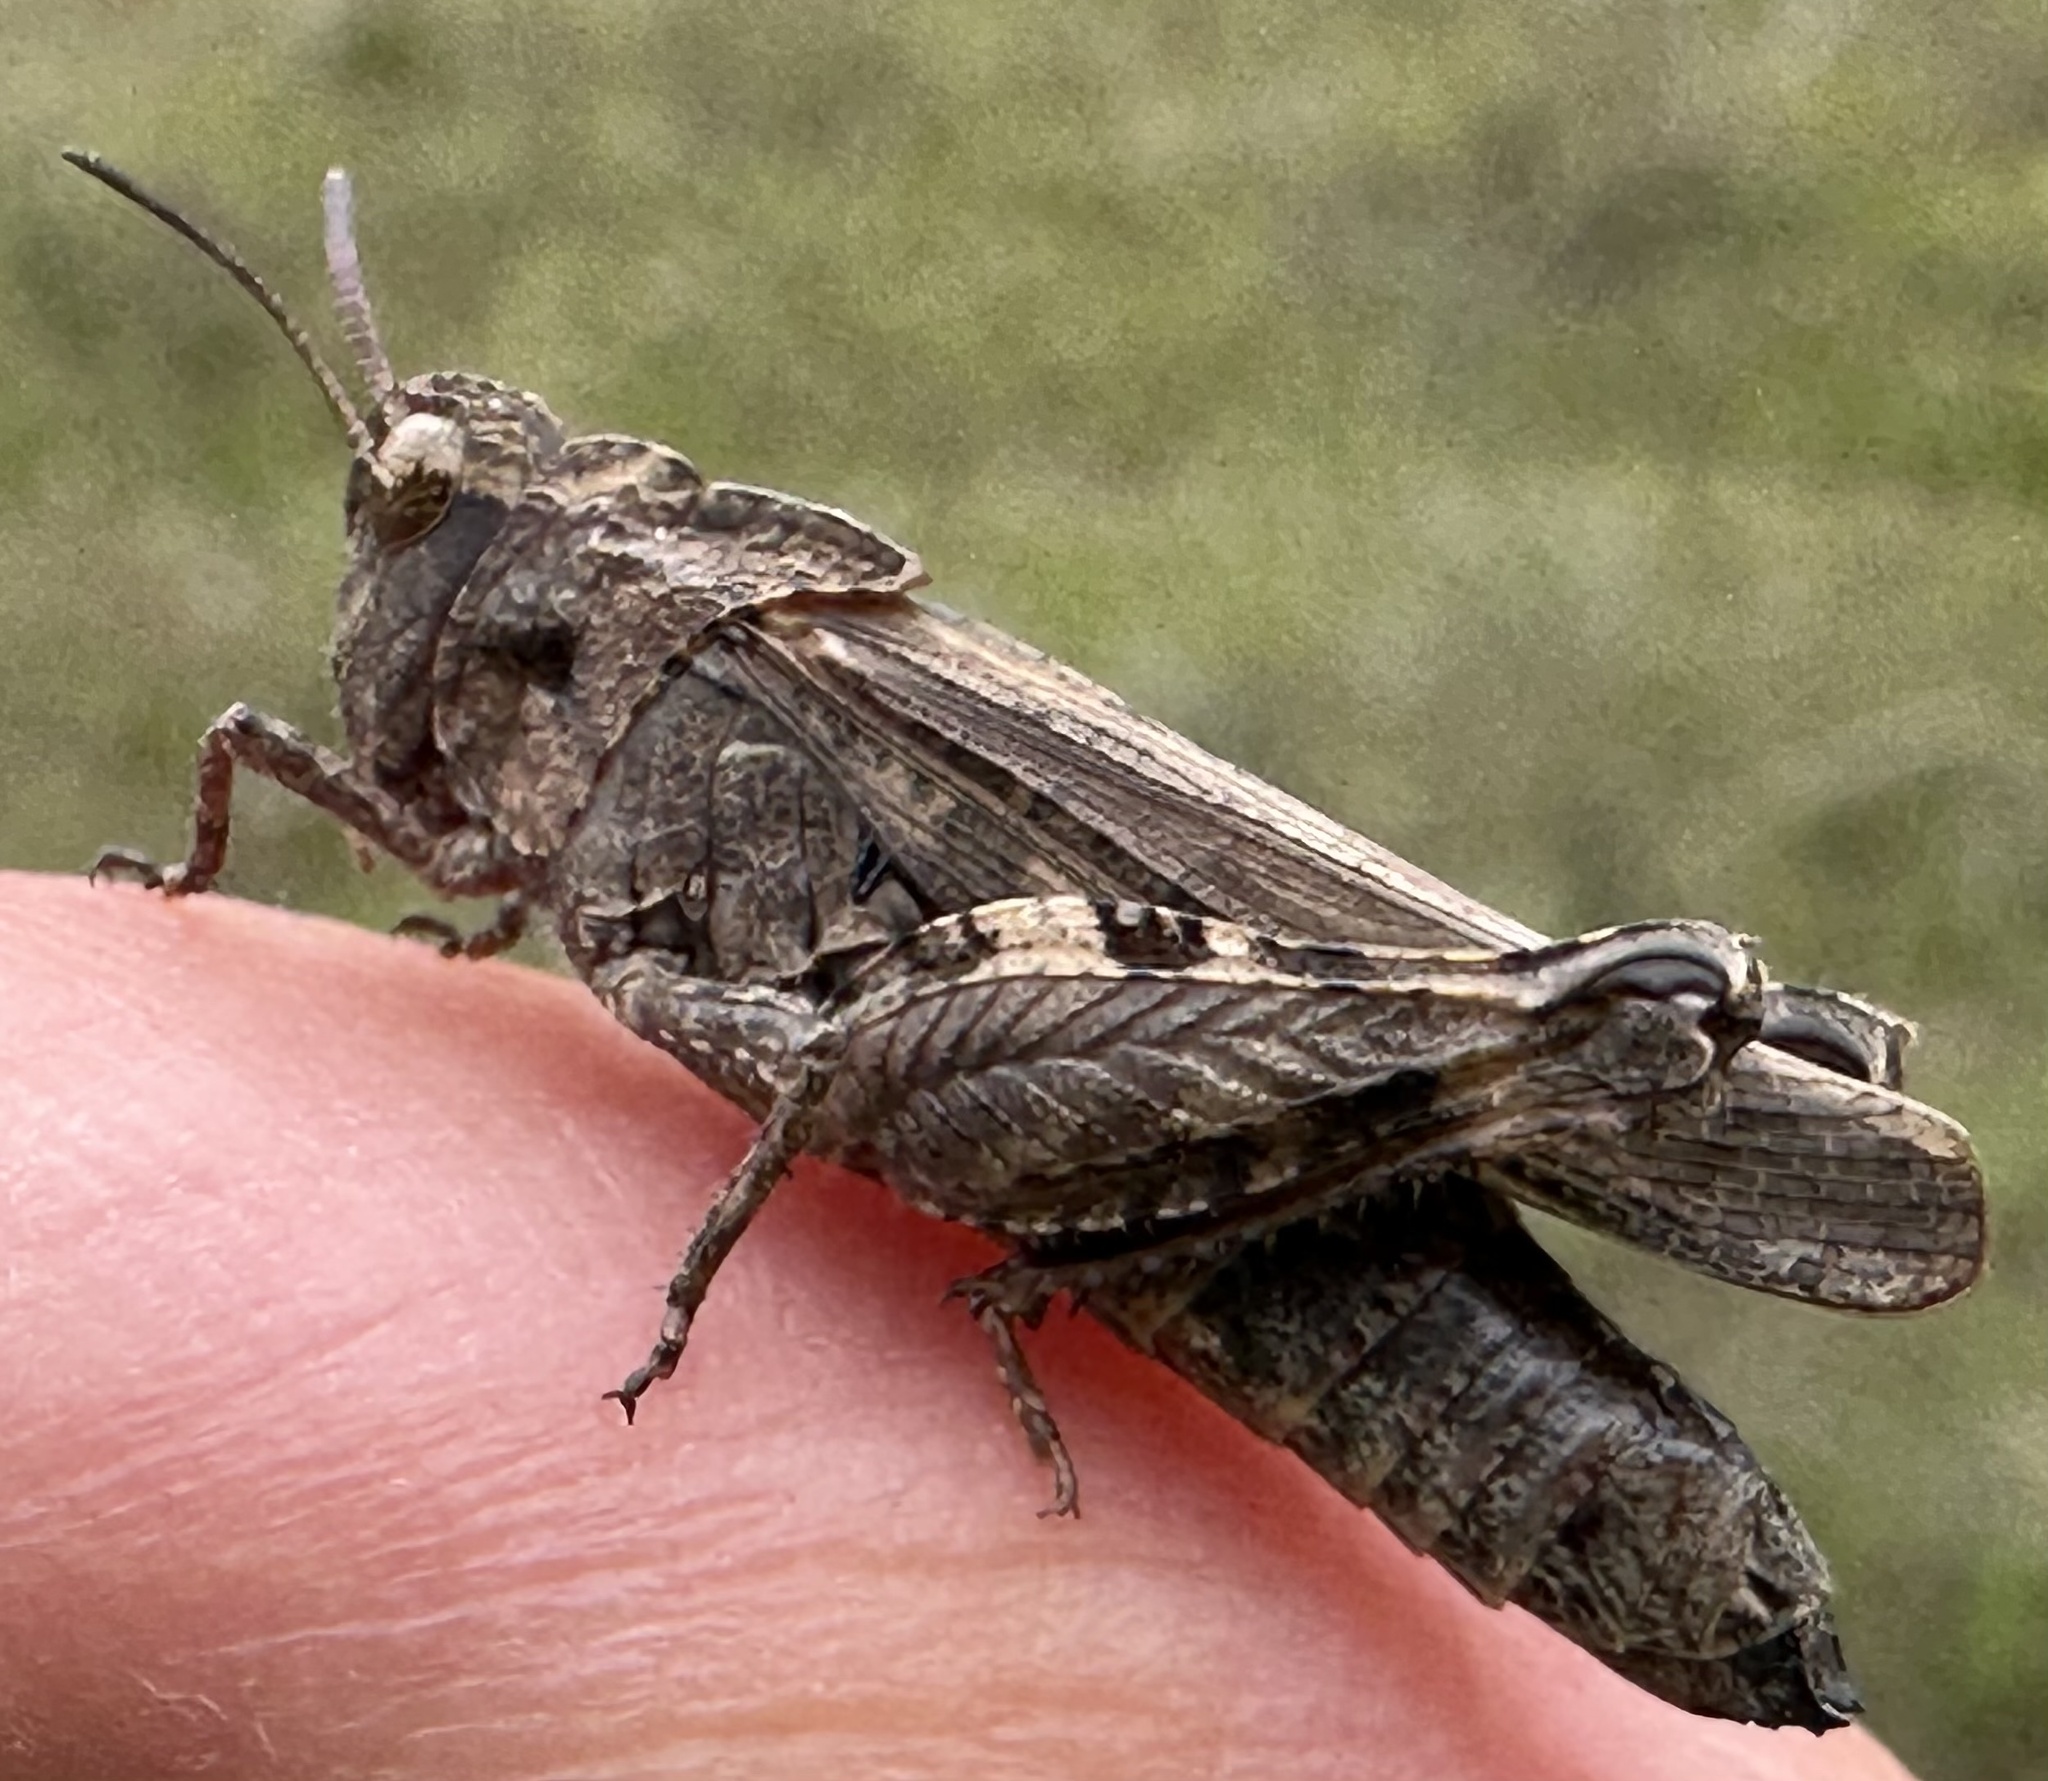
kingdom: Animalia
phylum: Arthropoda
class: Insecta
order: Orthoptera
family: Acrididae
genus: Chimarocephala
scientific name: Chimarocephala pacifica
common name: Painted meadow grasshopper
